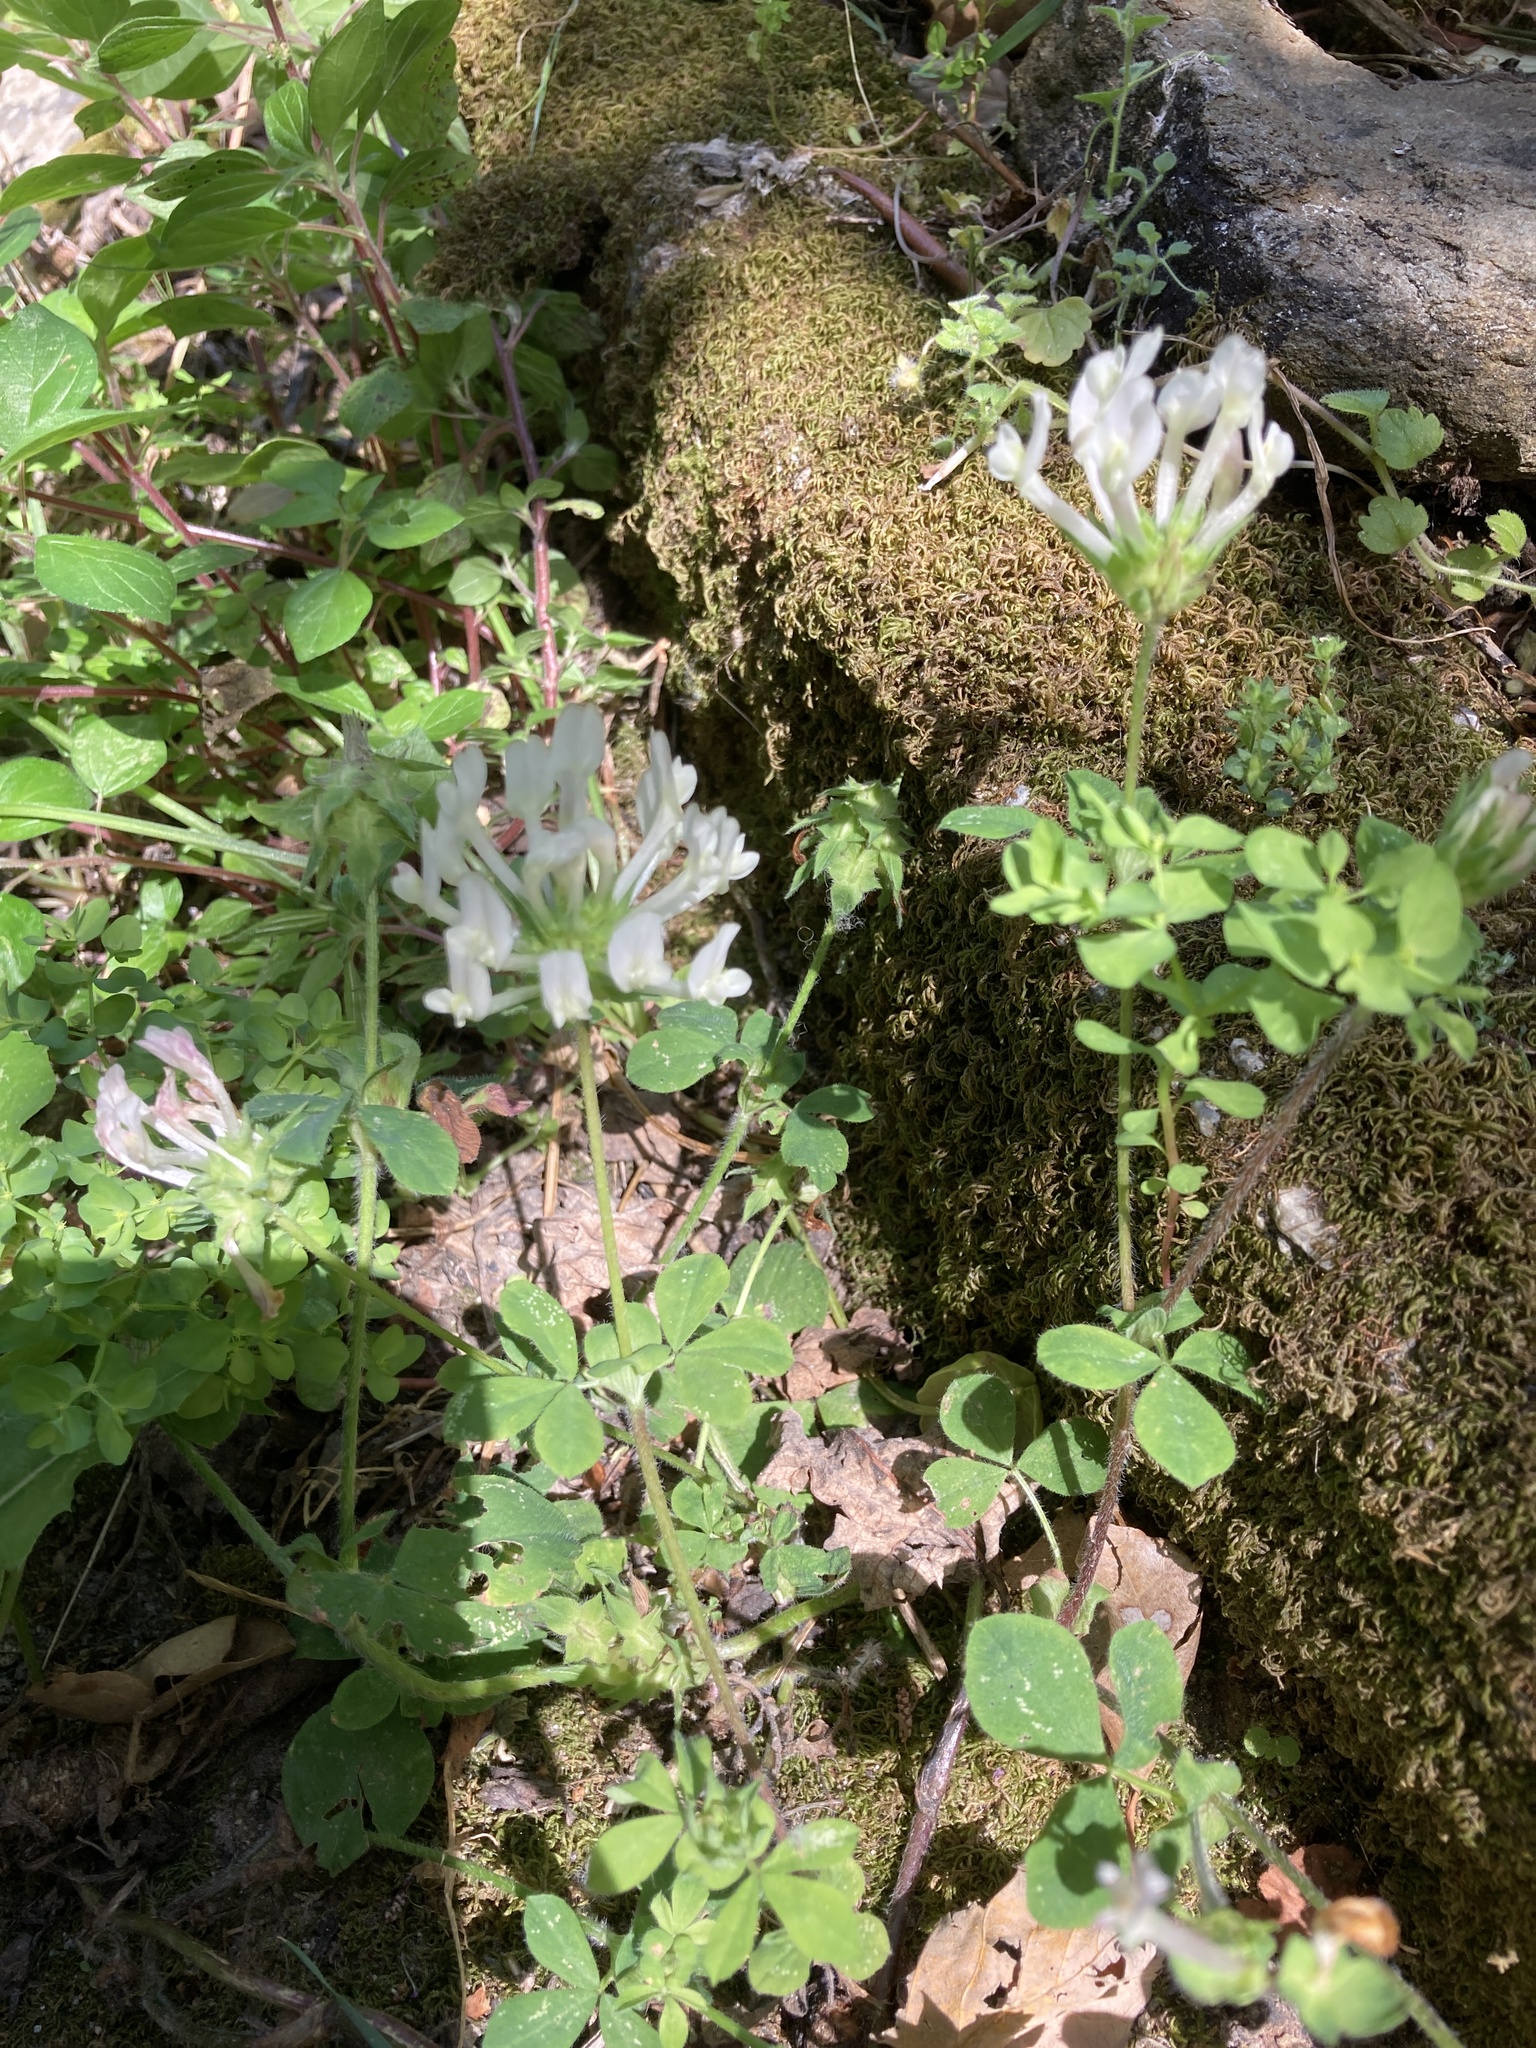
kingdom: Plantae
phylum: Tracheophyta
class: Magnoliopsida
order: Fabales
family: Fabaceae
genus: Trifolium
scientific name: Trifolium clypeatum
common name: Shield clover
